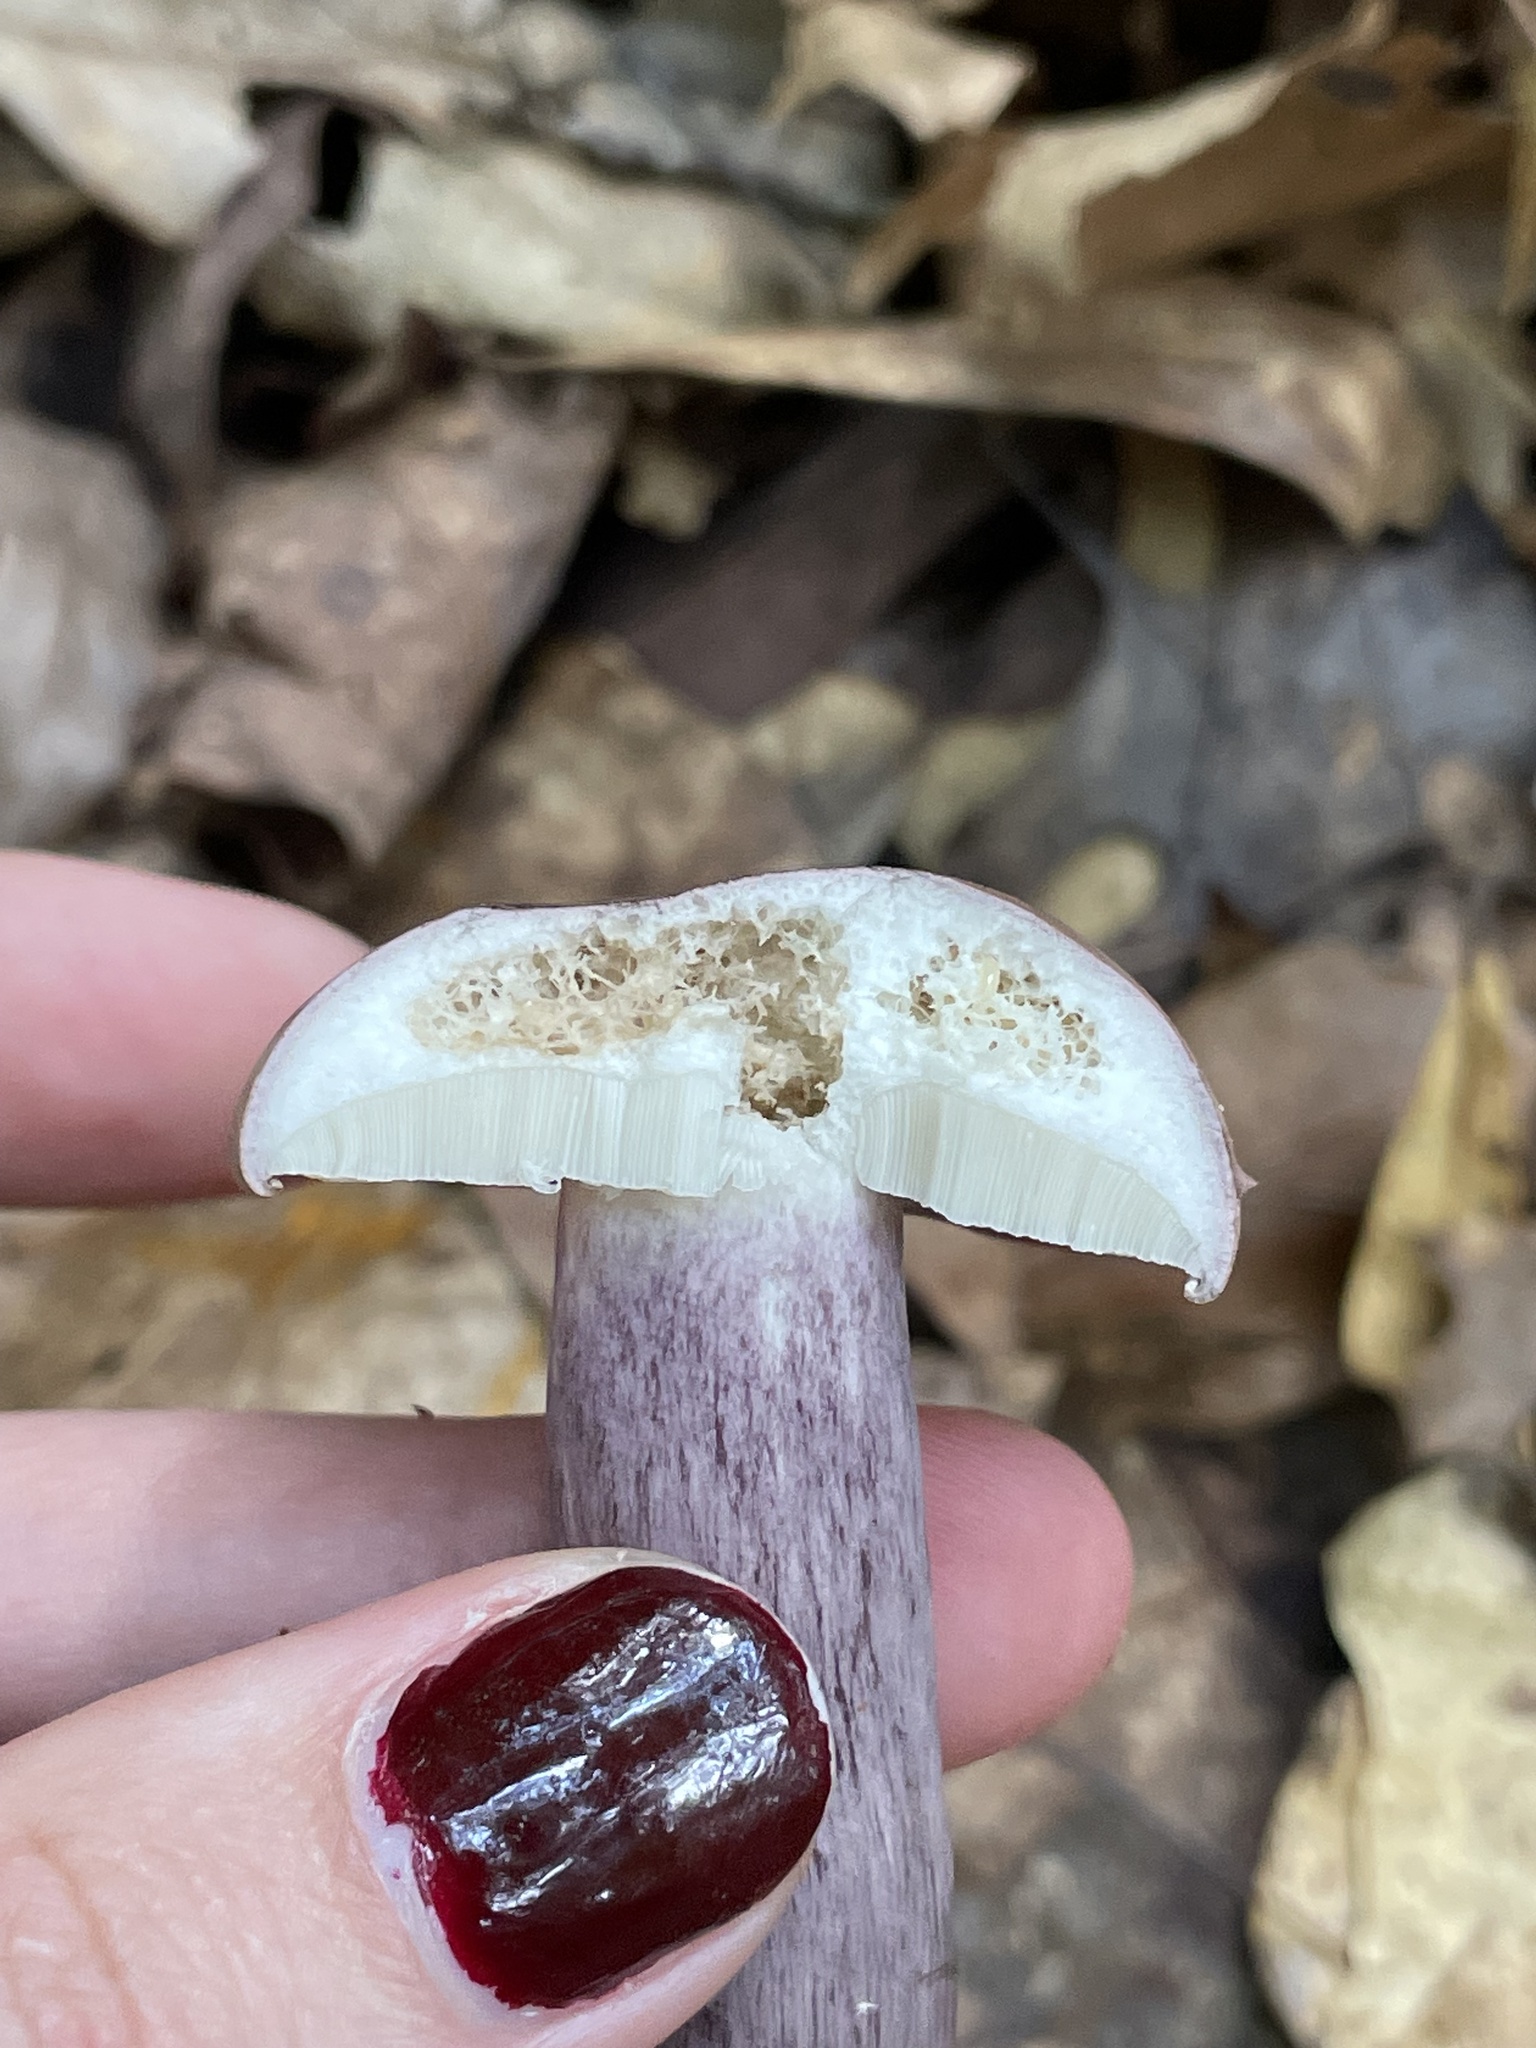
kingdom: Fungi
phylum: Basidiomycota
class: Agaricomycetes
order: Boletales
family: Boletaceae
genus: Tylopilus
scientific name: Tylopilus plumbeoviolaceus
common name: Violet gray bolete
